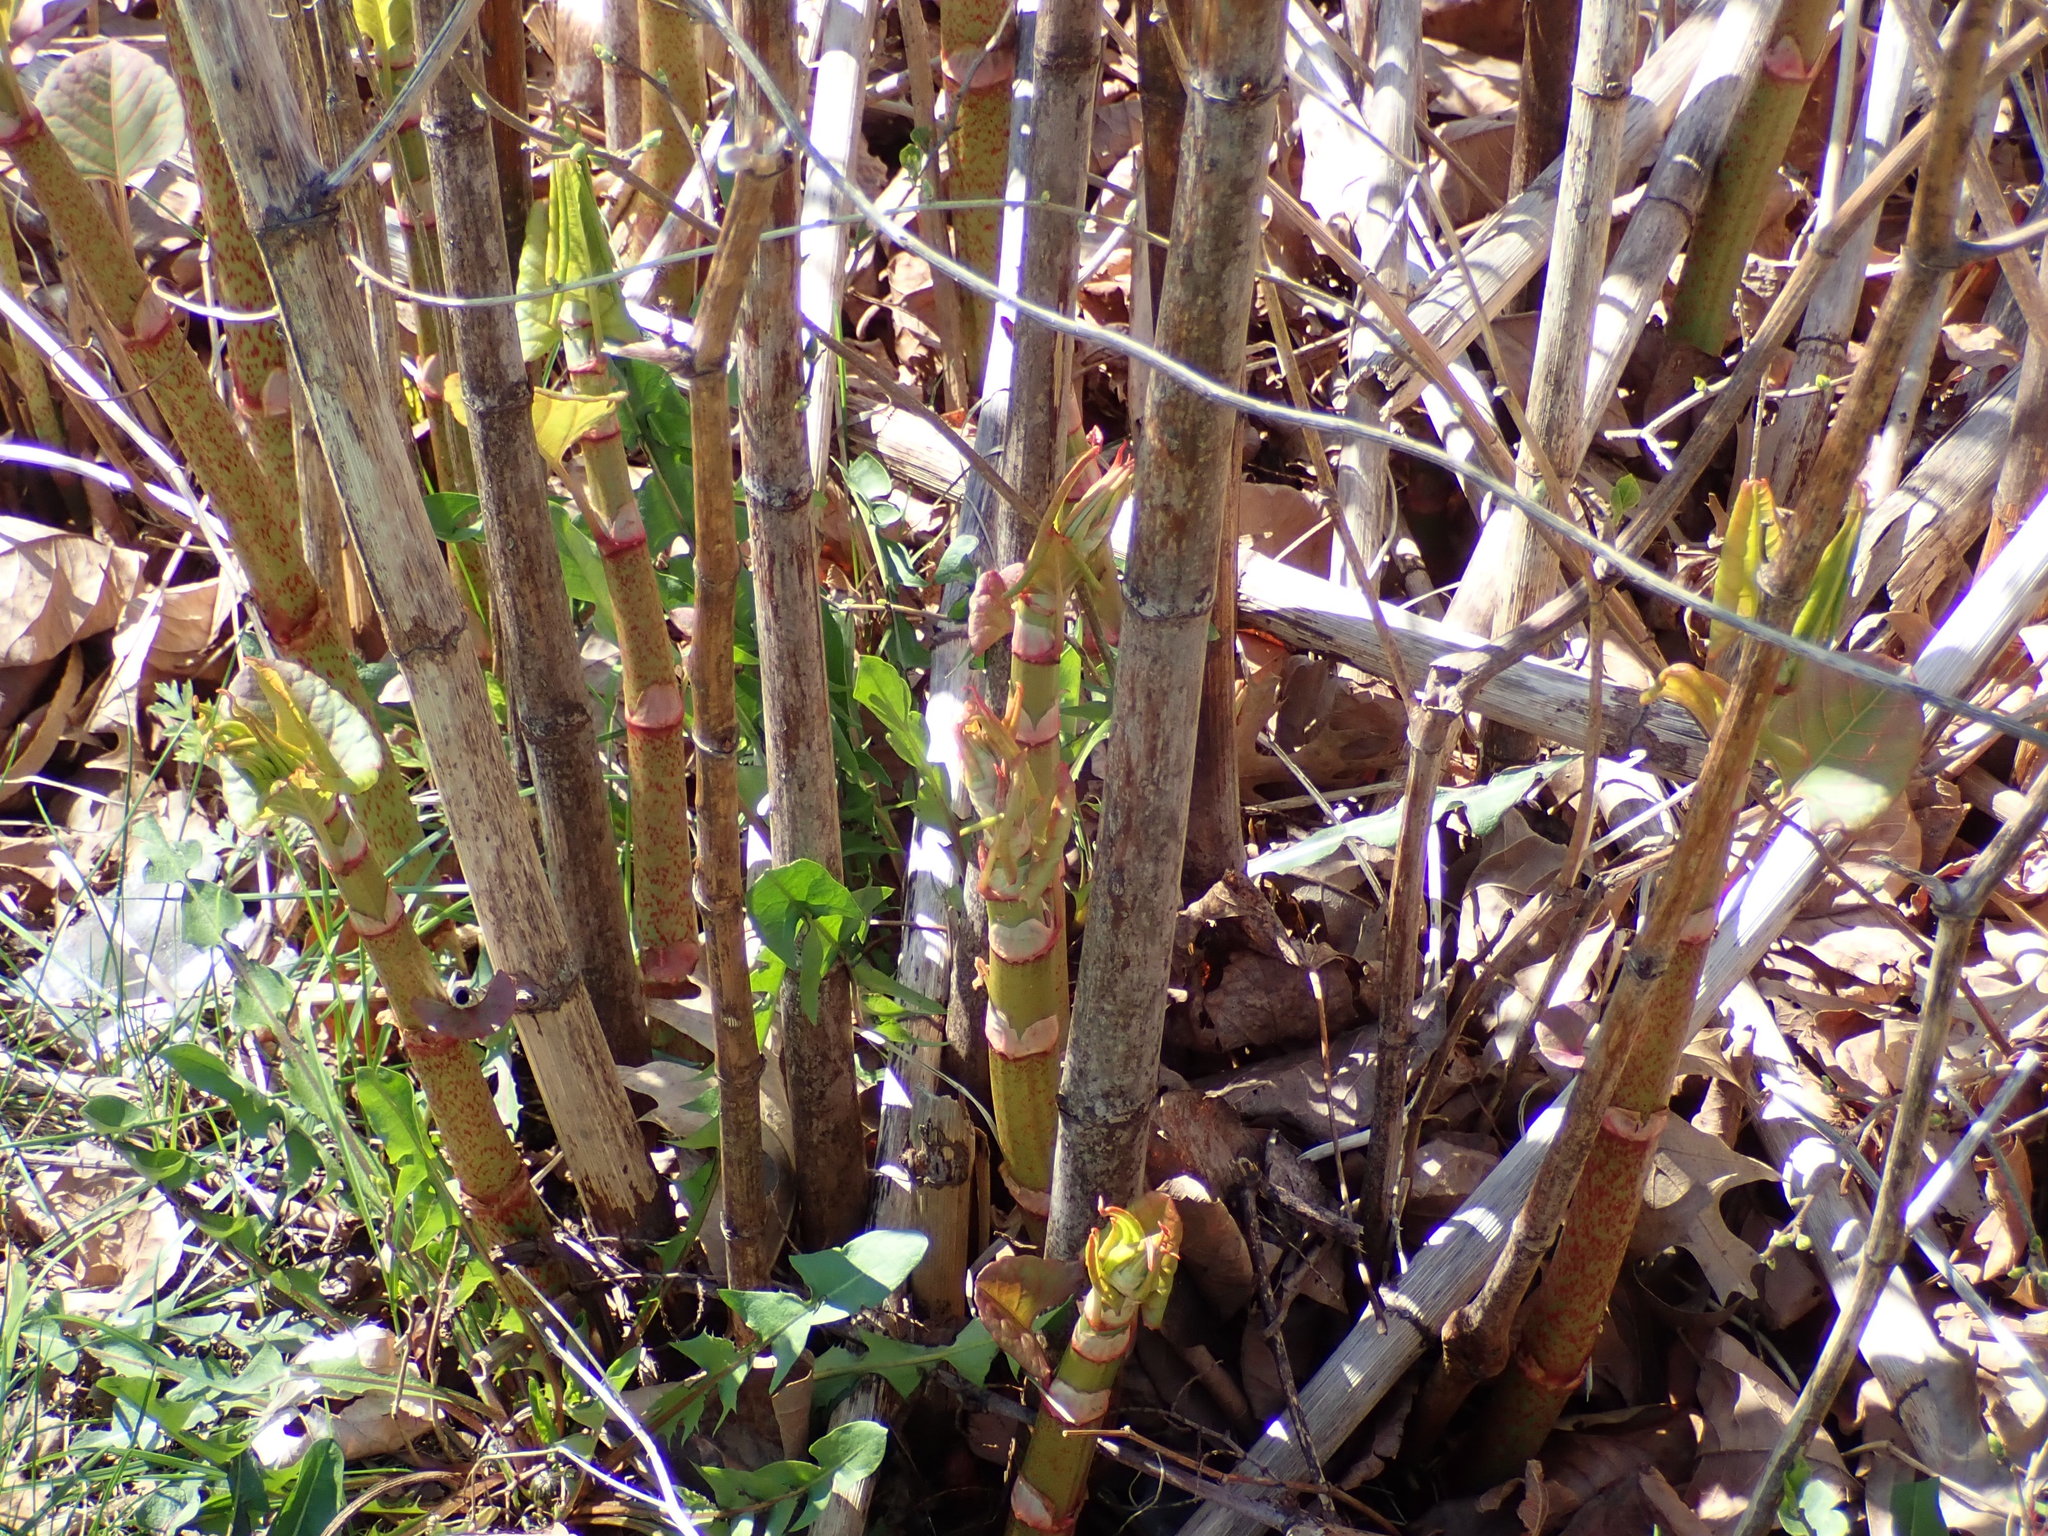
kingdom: Plantae
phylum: Tracheophyta
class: Magnoliopsida
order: Caryophyllales
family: Polygonaceae
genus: Reynoutria
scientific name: Reynoutria japonica
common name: Japanese knotweed
